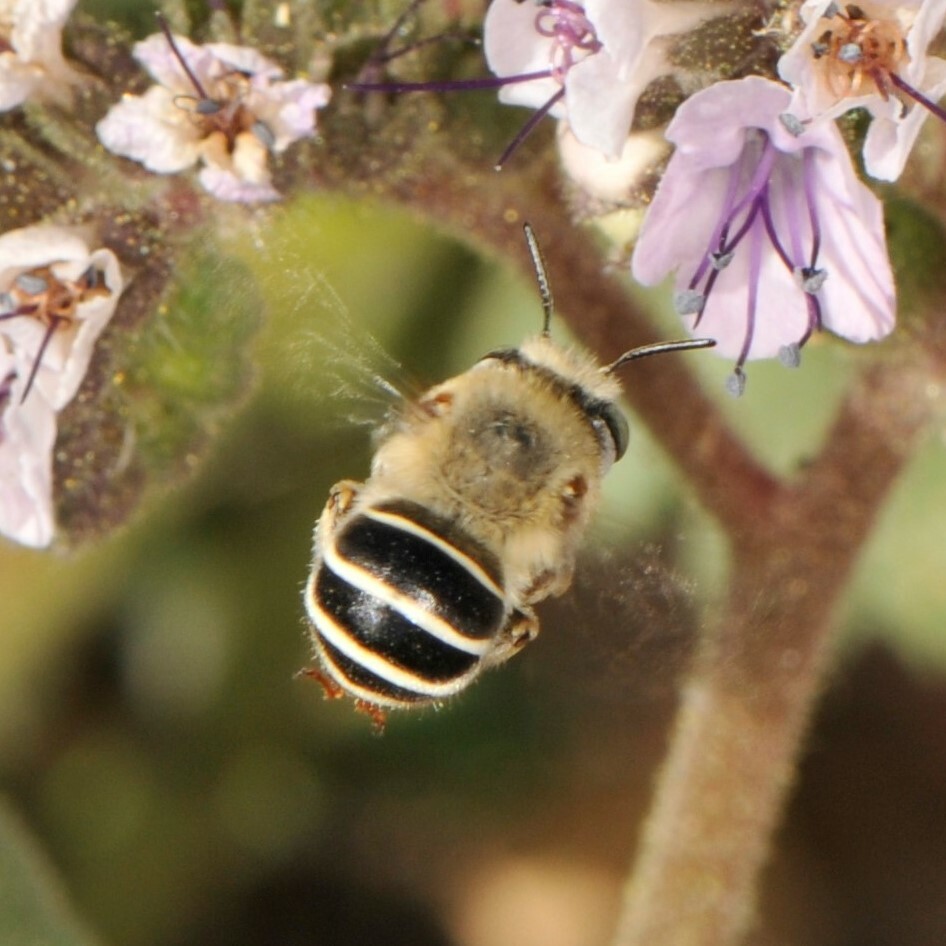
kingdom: Animalia
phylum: Arthropoda
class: Insecta
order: Hymenoptera
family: Apidae
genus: Anthophora
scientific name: Anthophora californica
